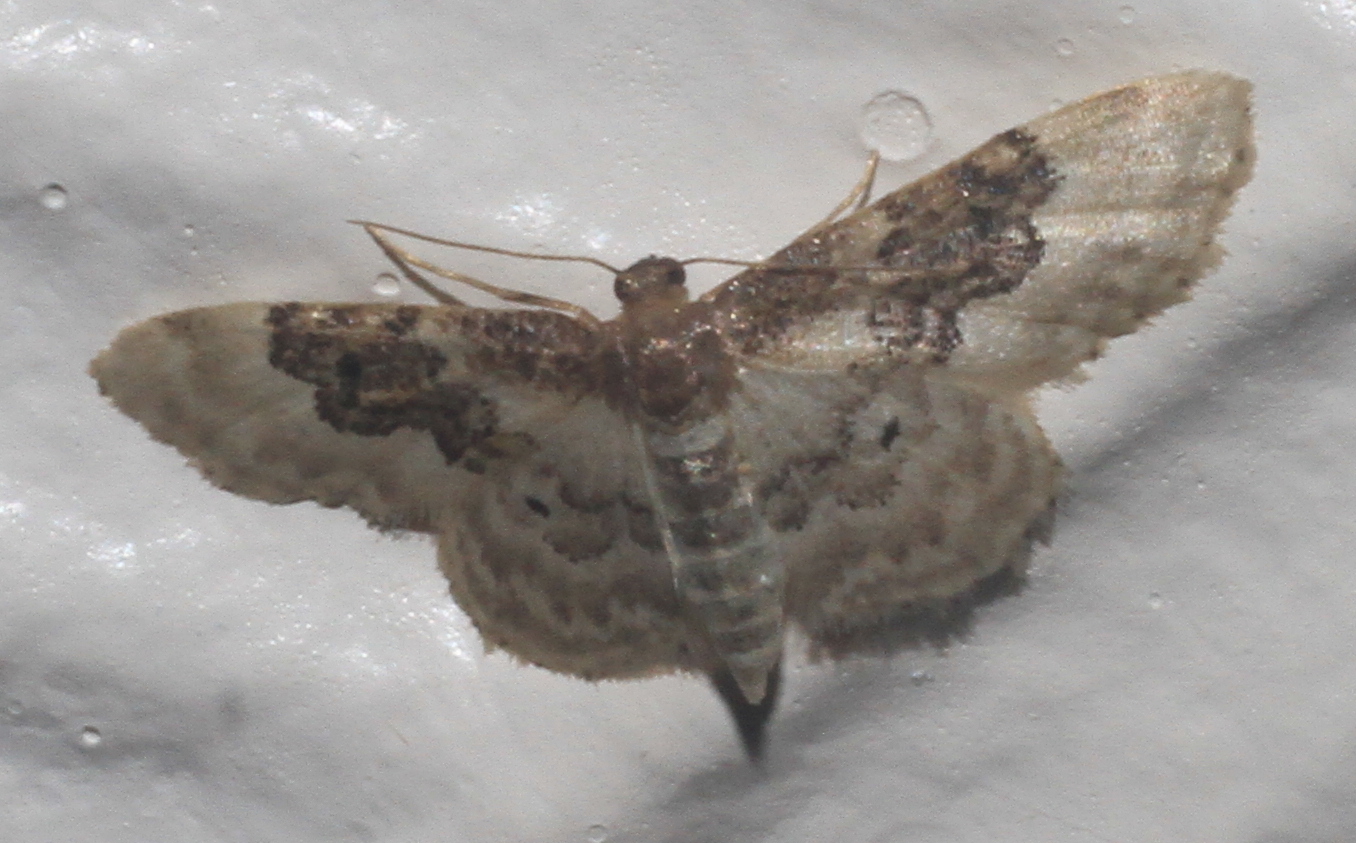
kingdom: Animalia
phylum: Arthropoda
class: Insecta
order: Lepidoptera
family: Geometridae
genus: Idaea
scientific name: Idaea rusticata
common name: Least carpet
